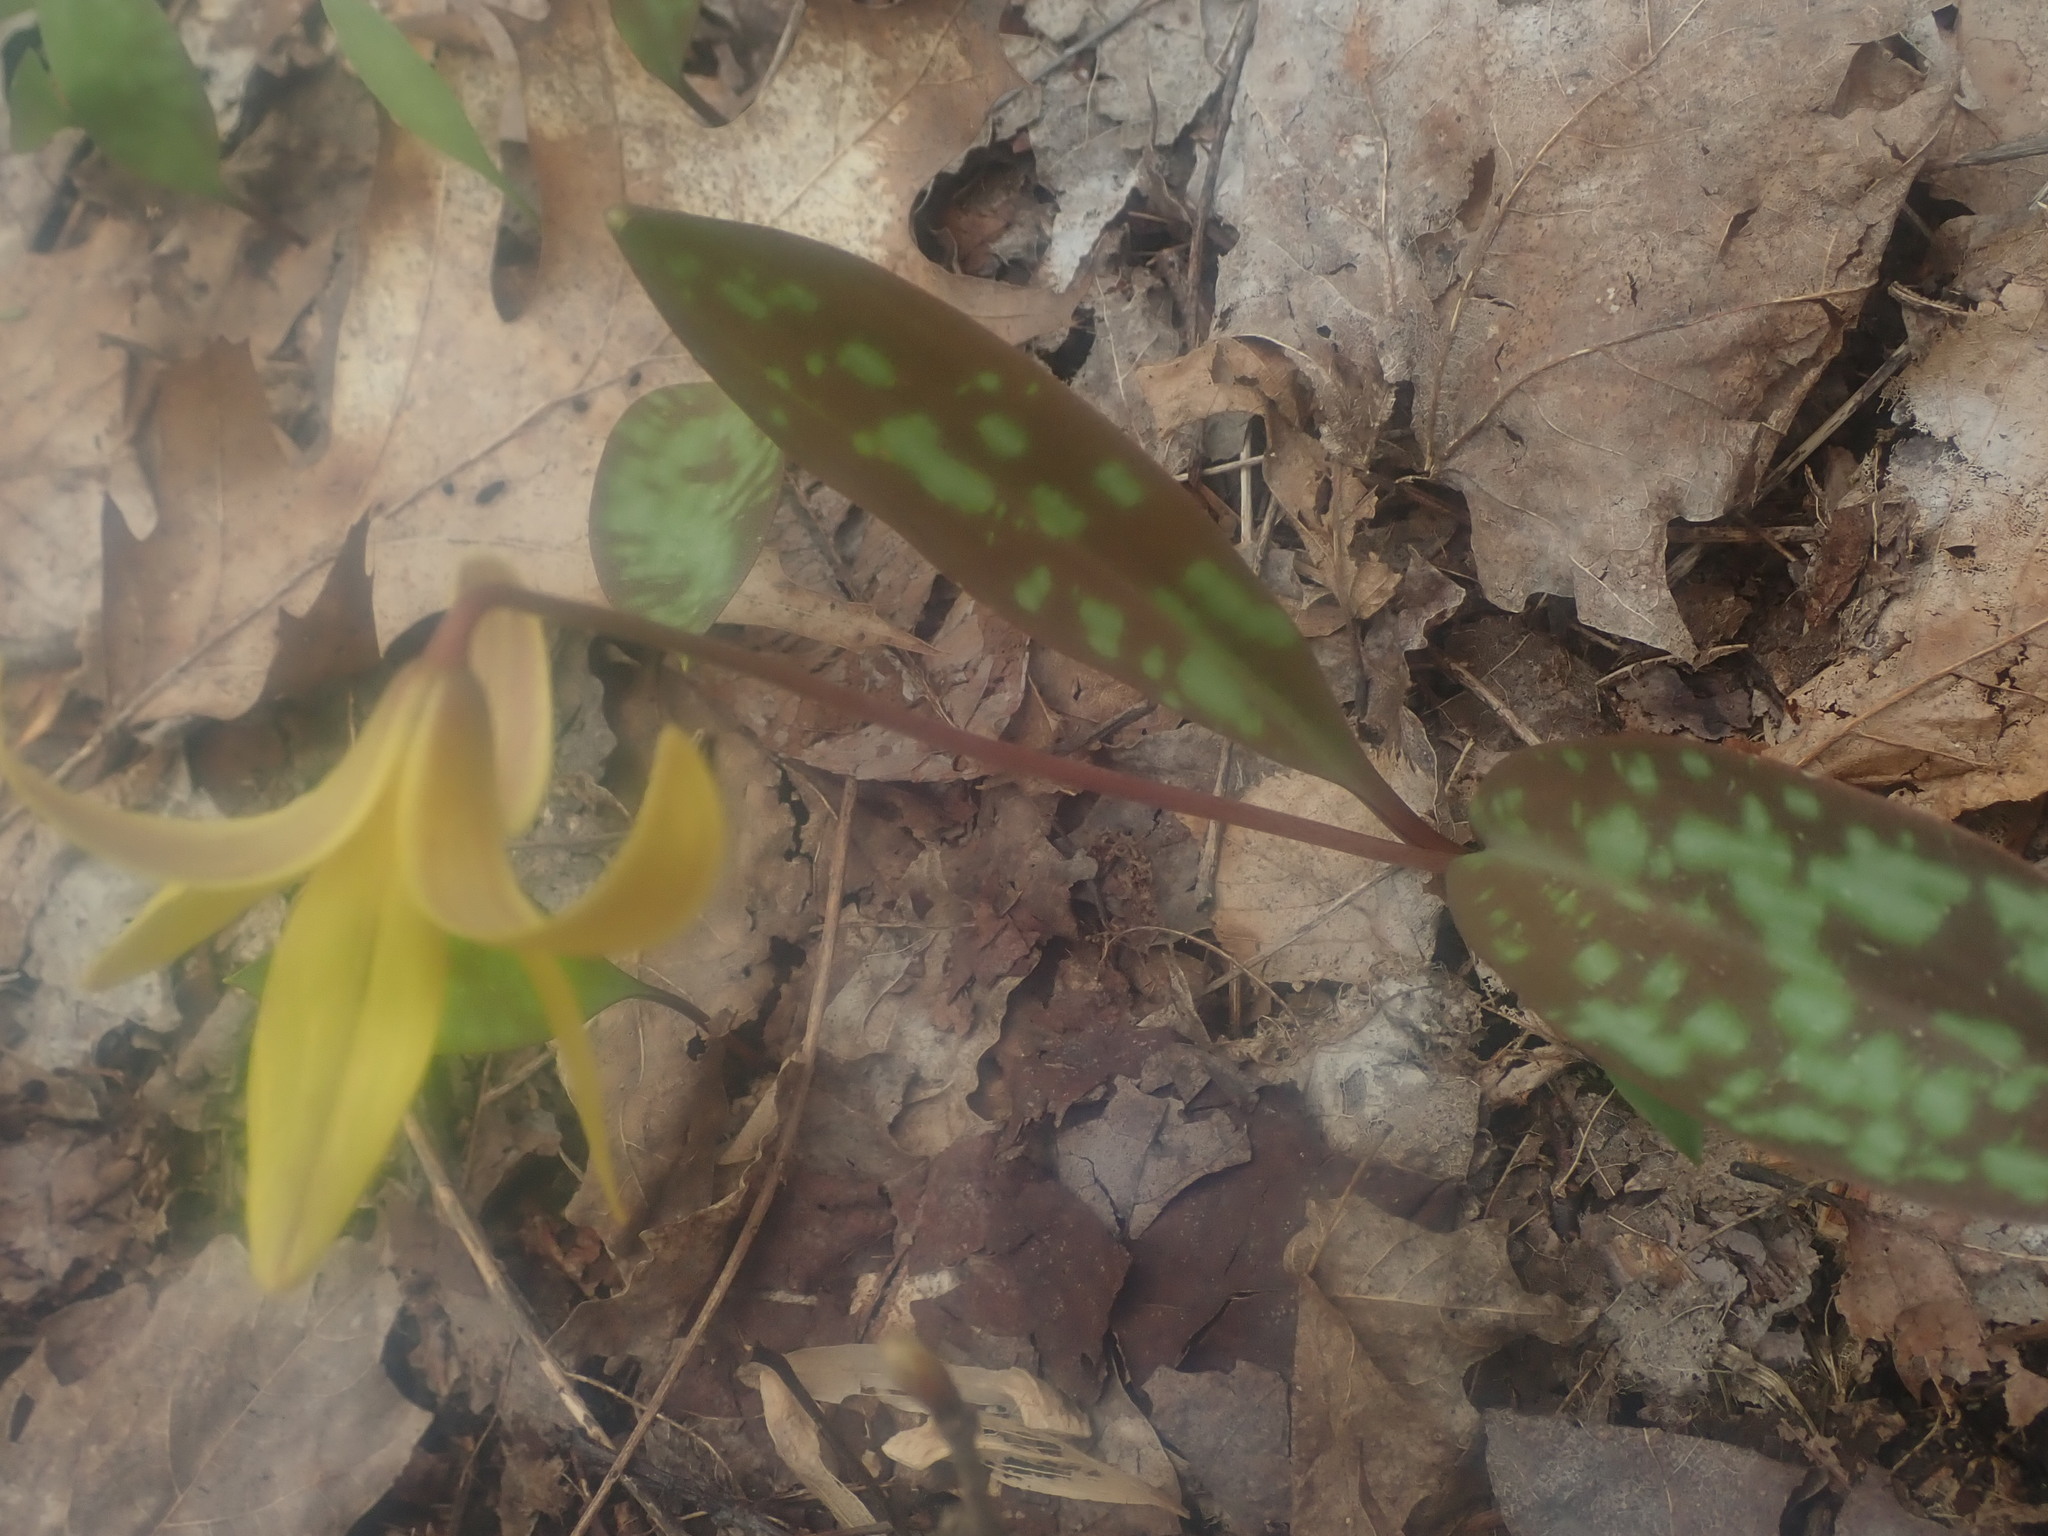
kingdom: Plantae
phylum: Tracheophyta
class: Liliopsida
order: Liliales
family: Liliaceae
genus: Erythronium
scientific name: Erythronium americanum
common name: Yellow adder's-tongue
